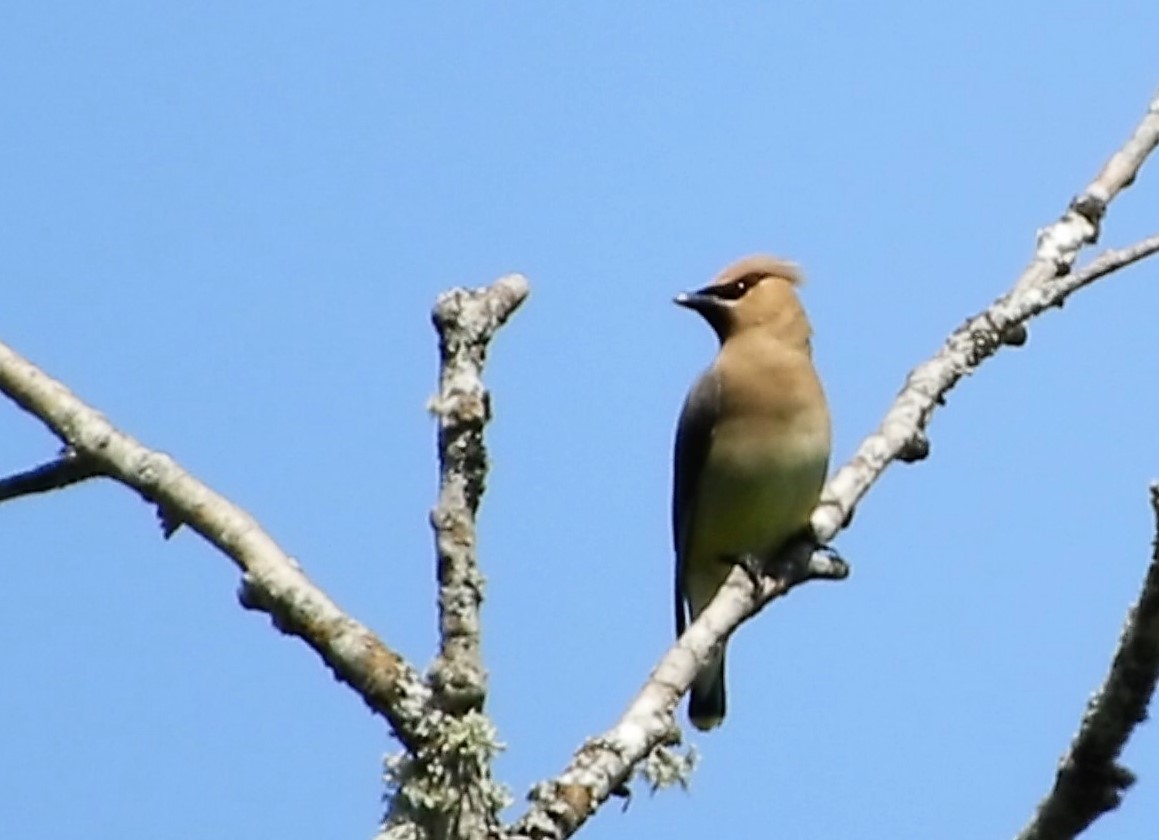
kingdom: Animalia
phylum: Chordata
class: Aves
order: Passeriformes
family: Bombycillidae
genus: Bombycilla
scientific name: Bombycilla cedrorum
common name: Cedar waxwing
